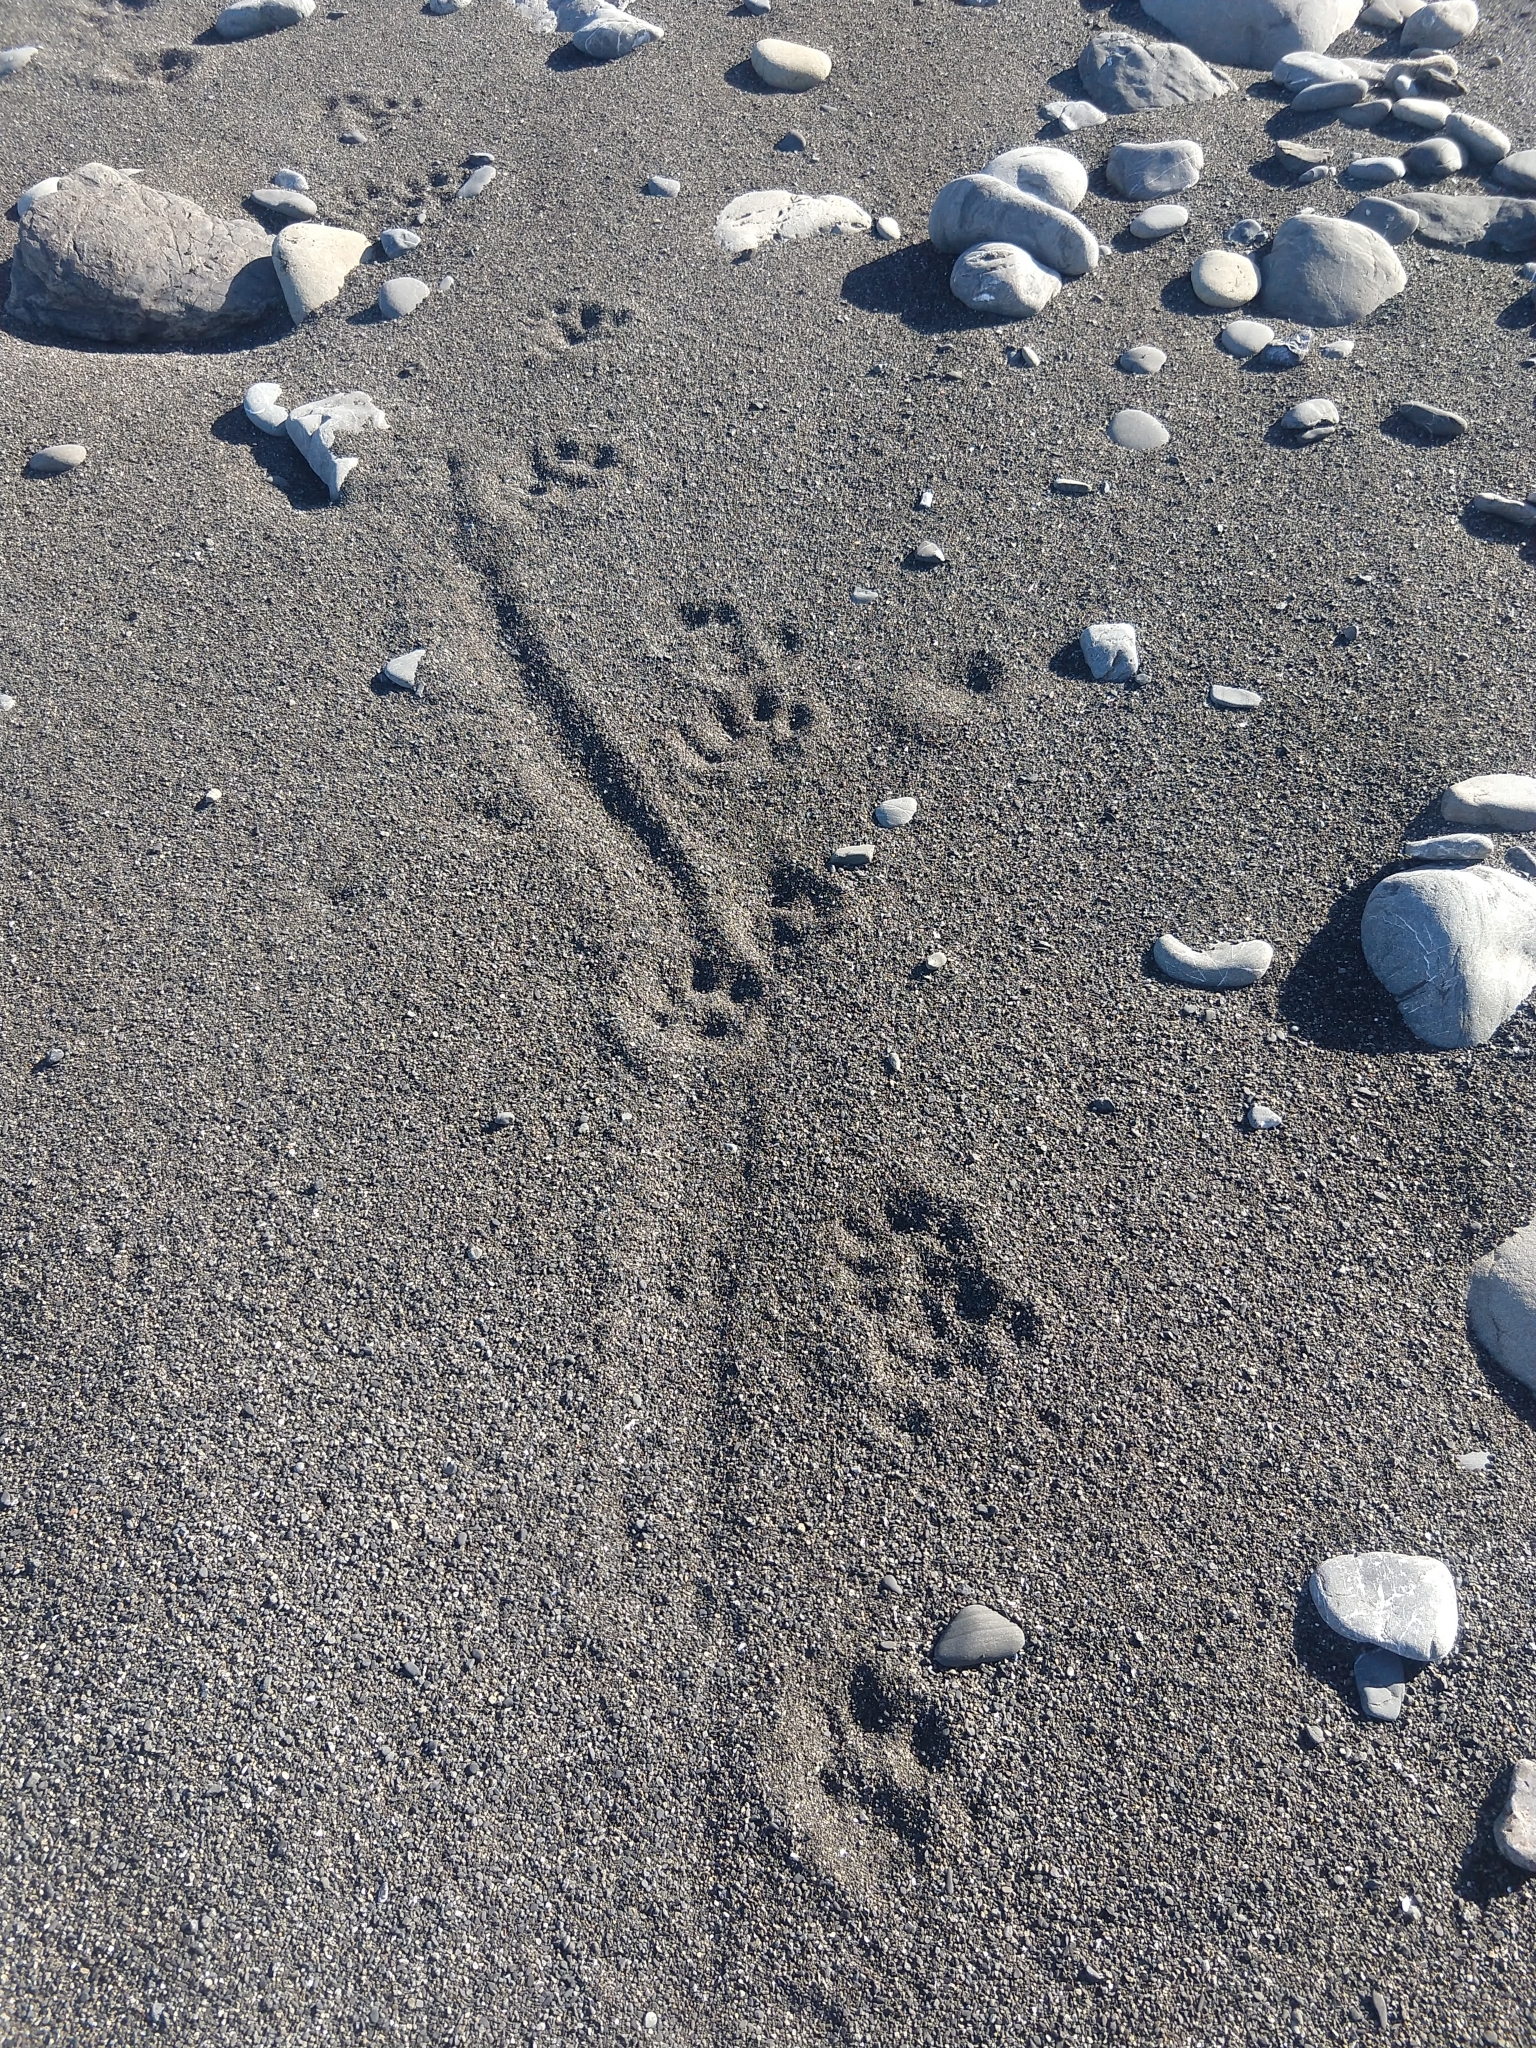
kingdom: Animalia
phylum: Chordata
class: Mammalia
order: Carnivora
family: Mustelidae
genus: Lontra
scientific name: Lontra canadensis
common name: North american river otter
